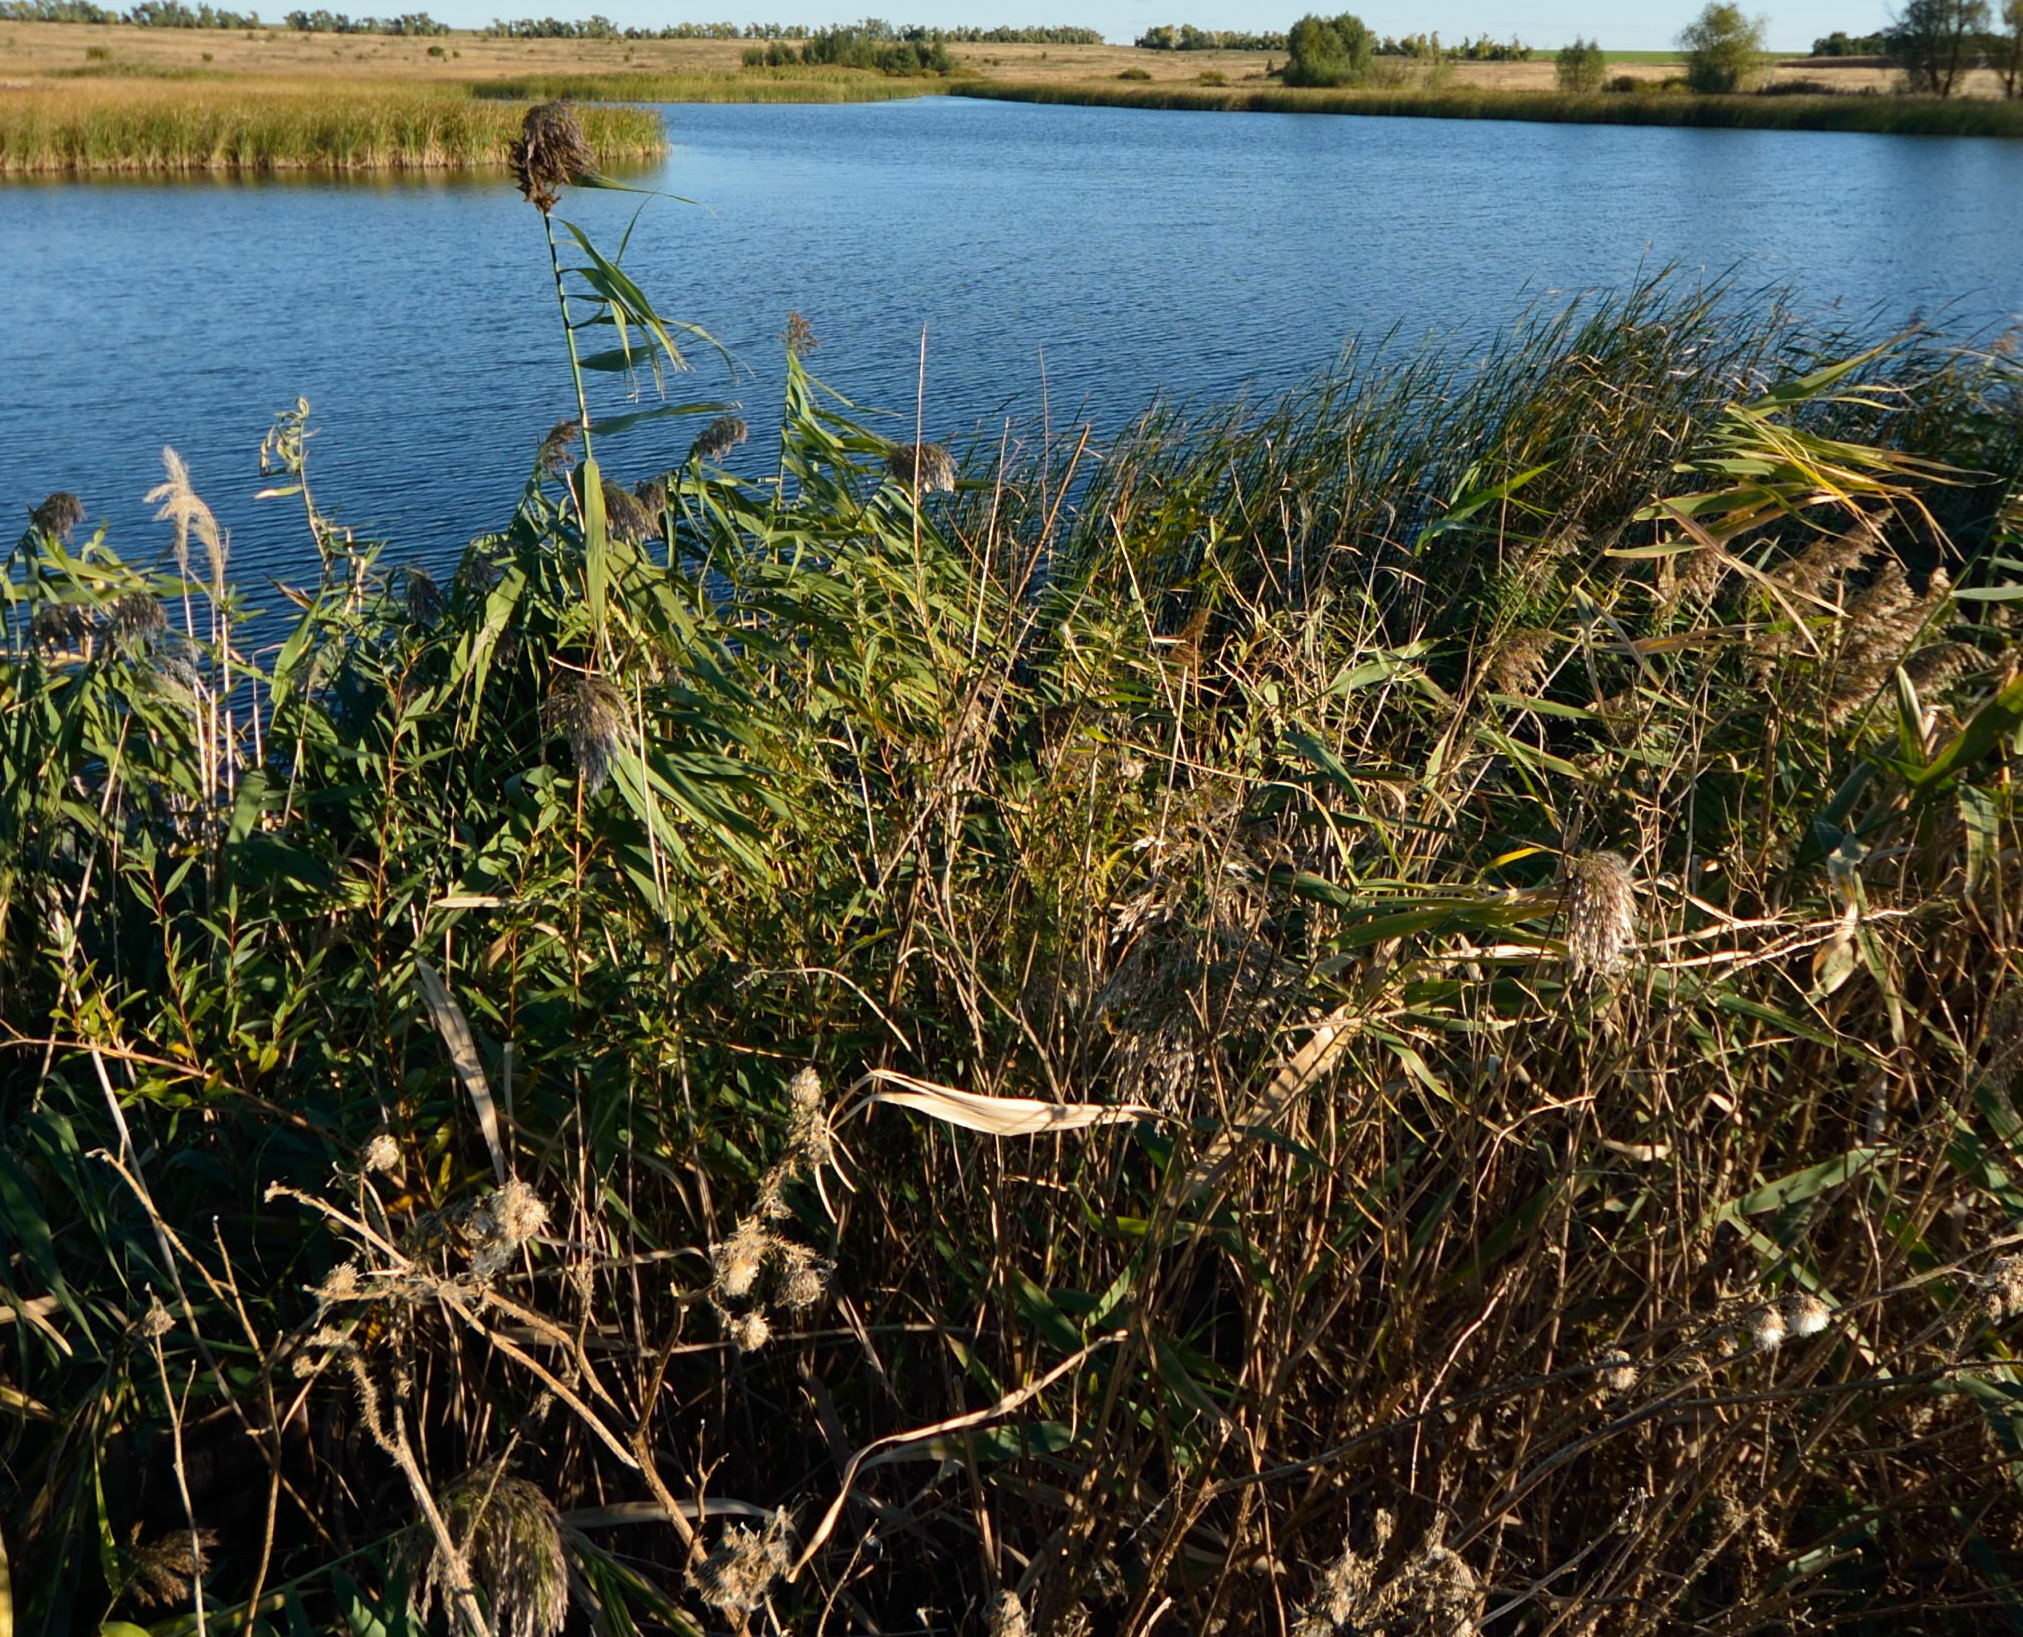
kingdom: Plantae
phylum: Tracheophyta
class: Liliopsida
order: Poales
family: Poaceae
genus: Phragmites
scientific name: Phragmites australis
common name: Common reed
